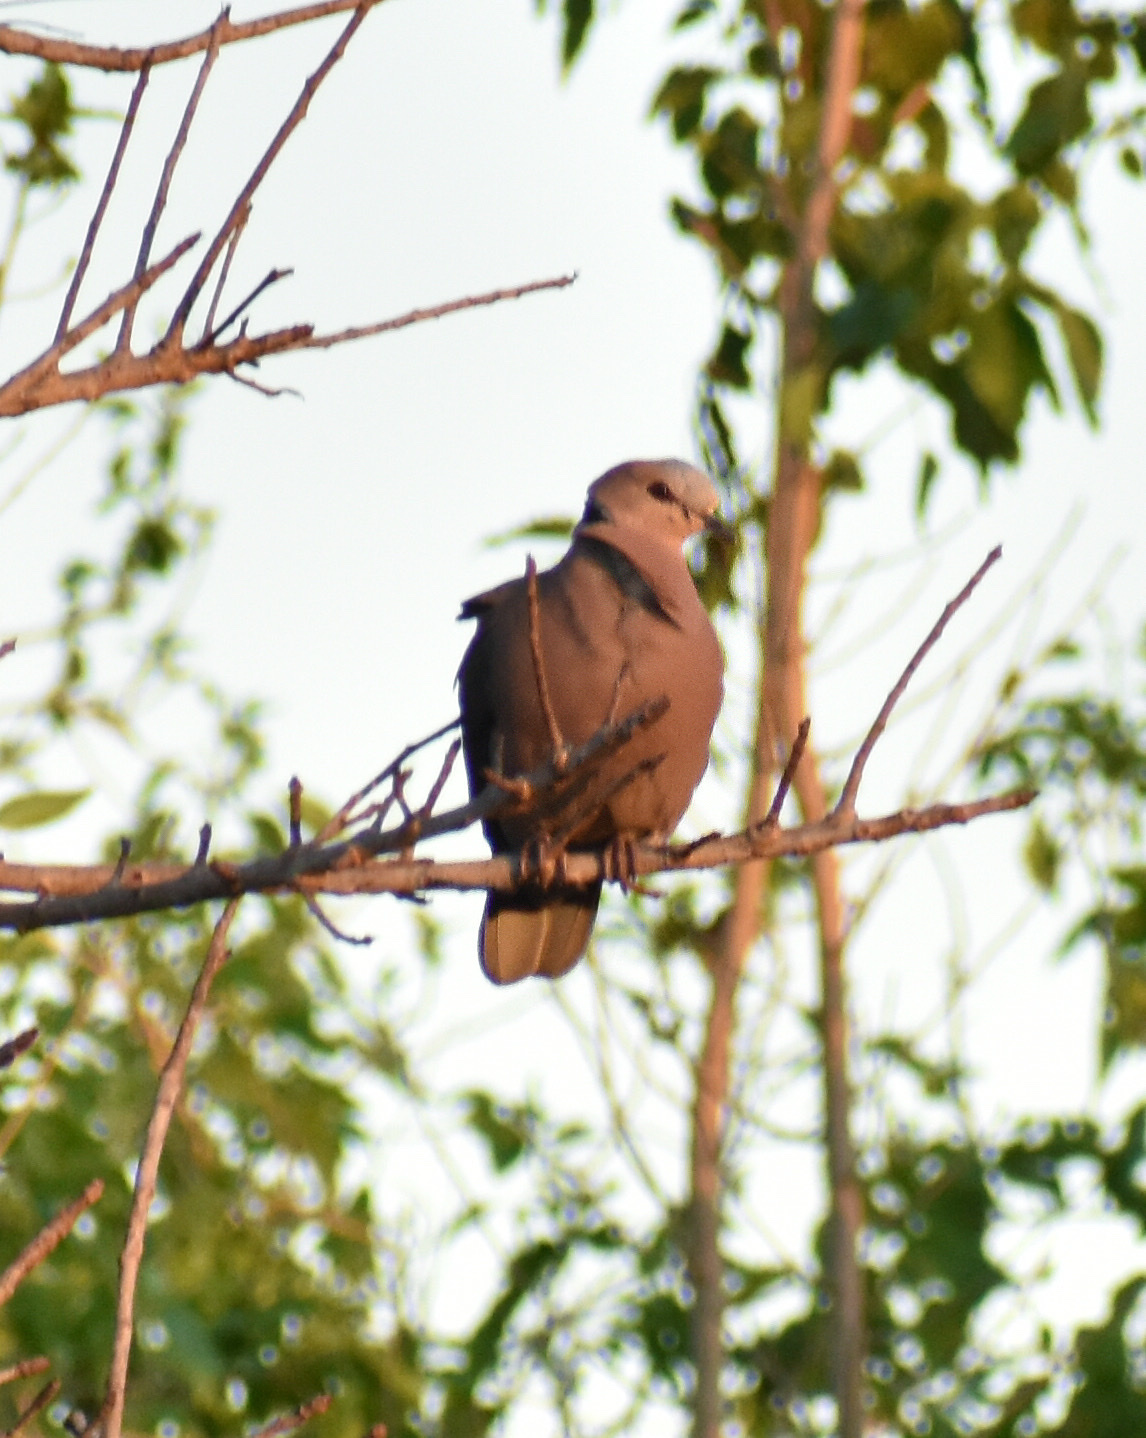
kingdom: Animalia
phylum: Chordata
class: Aves
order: Columbiformes
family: Columbidae
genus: Streptopelia
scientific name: Streptopelia semitorquata
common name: Red-eyed dove
